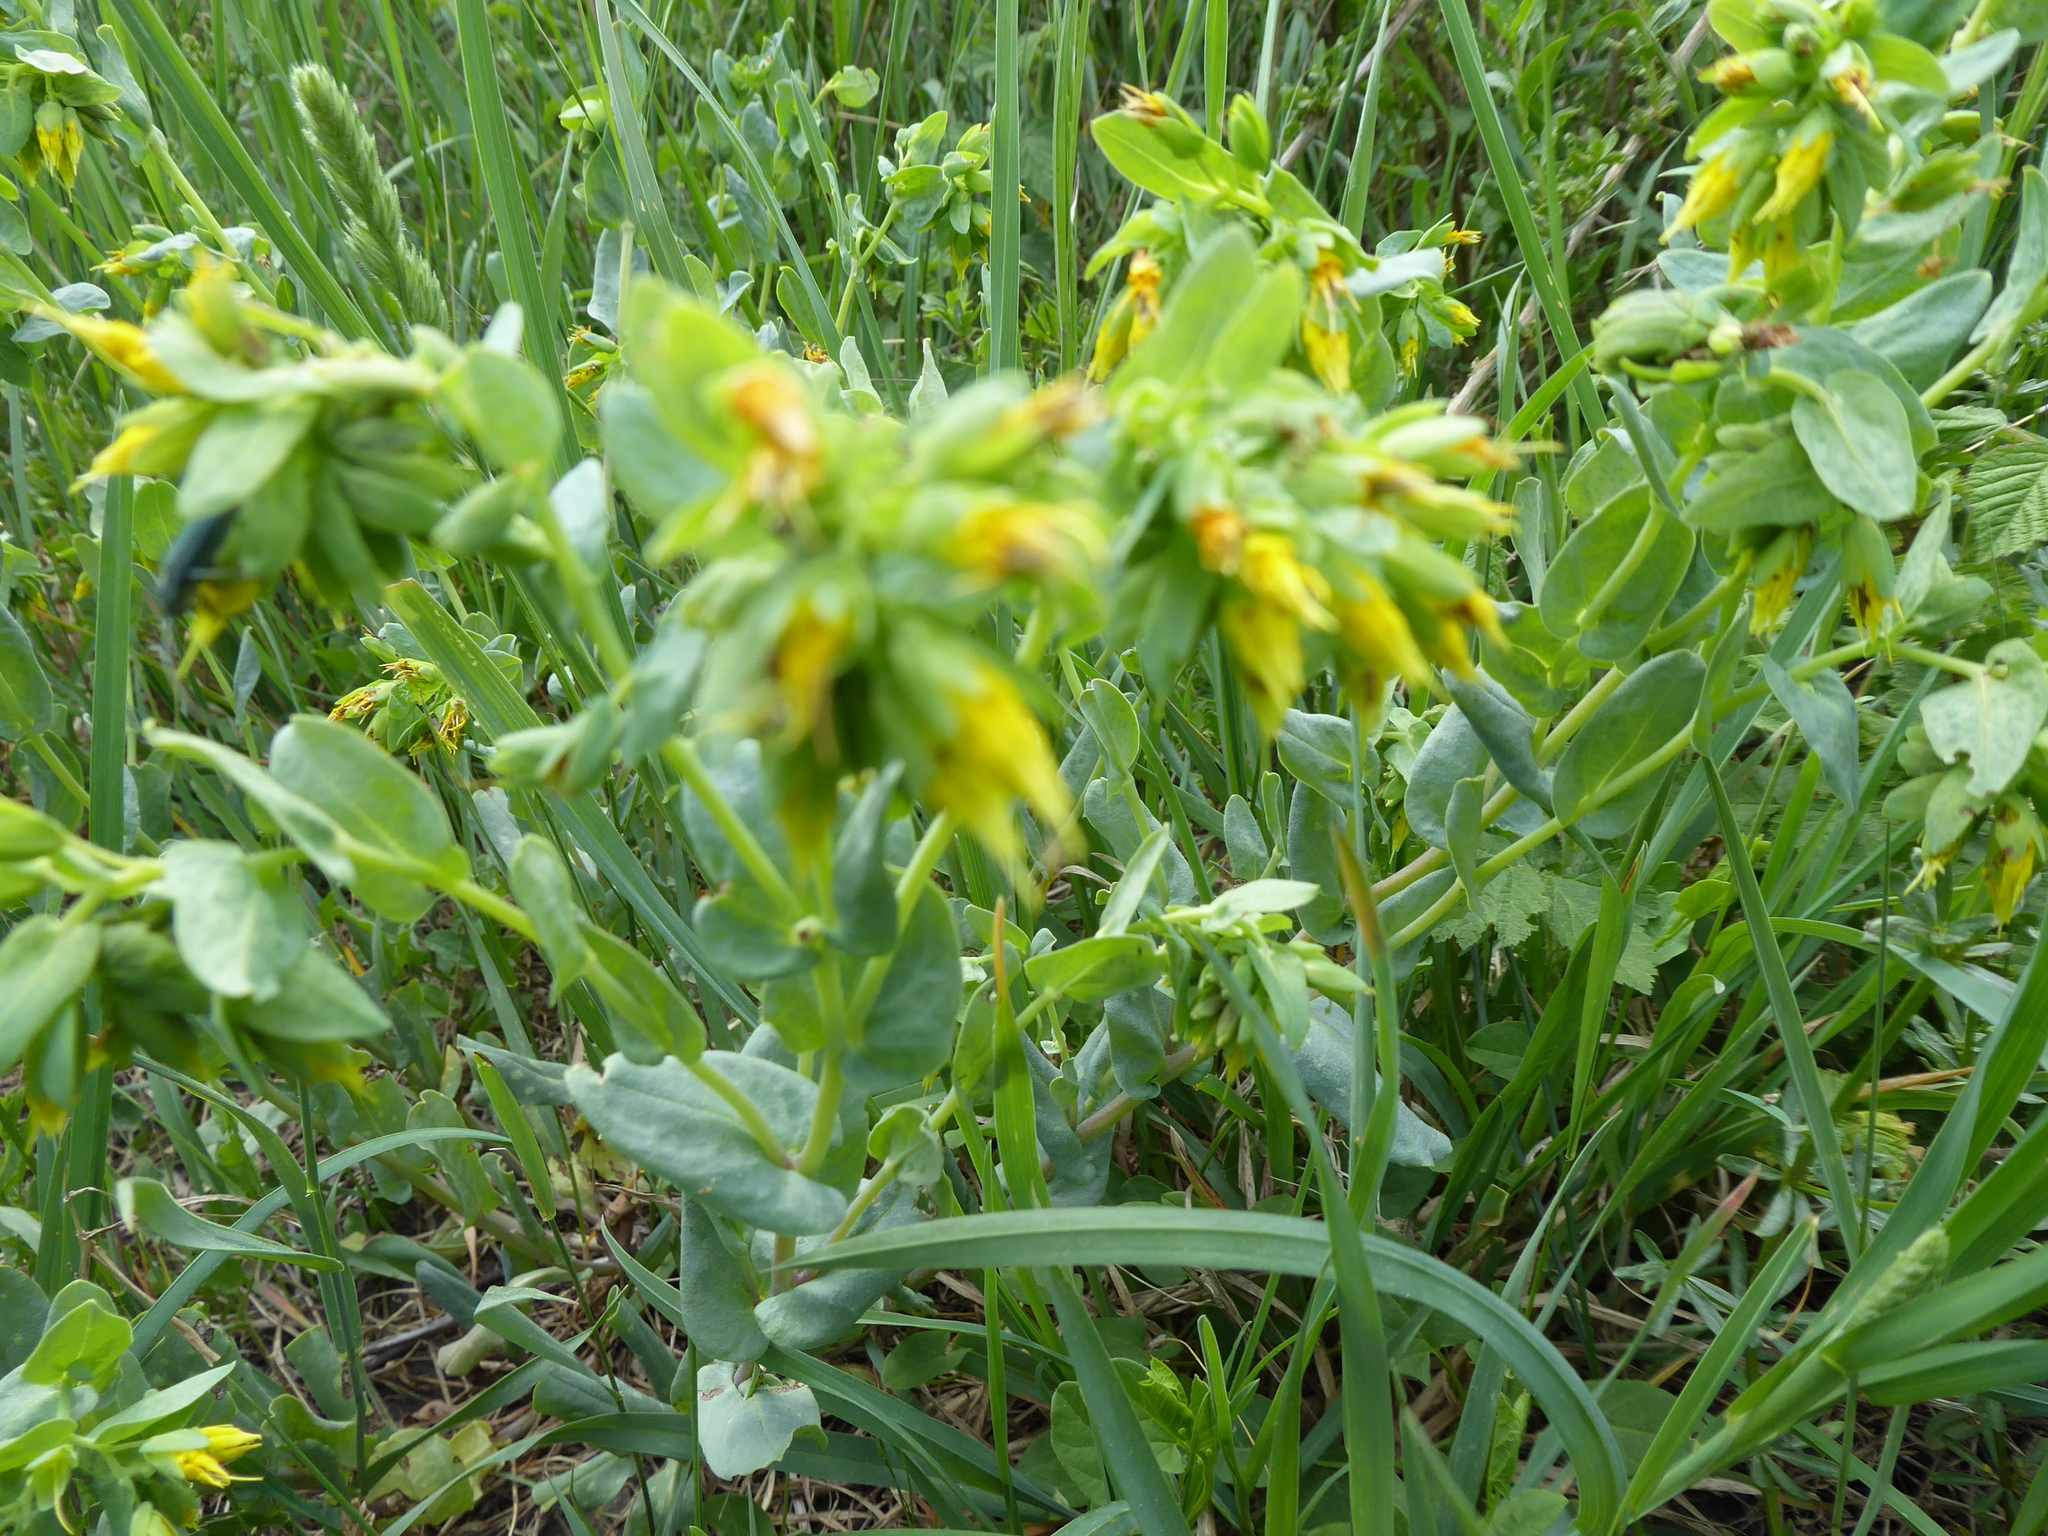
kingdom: Plantae
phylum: Tracheophyta
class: Magnoliopsida
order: Boraginales
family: Boraginaceae
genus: Cerinthe
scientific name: Cerinthe minor
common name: Lesser honeywort
